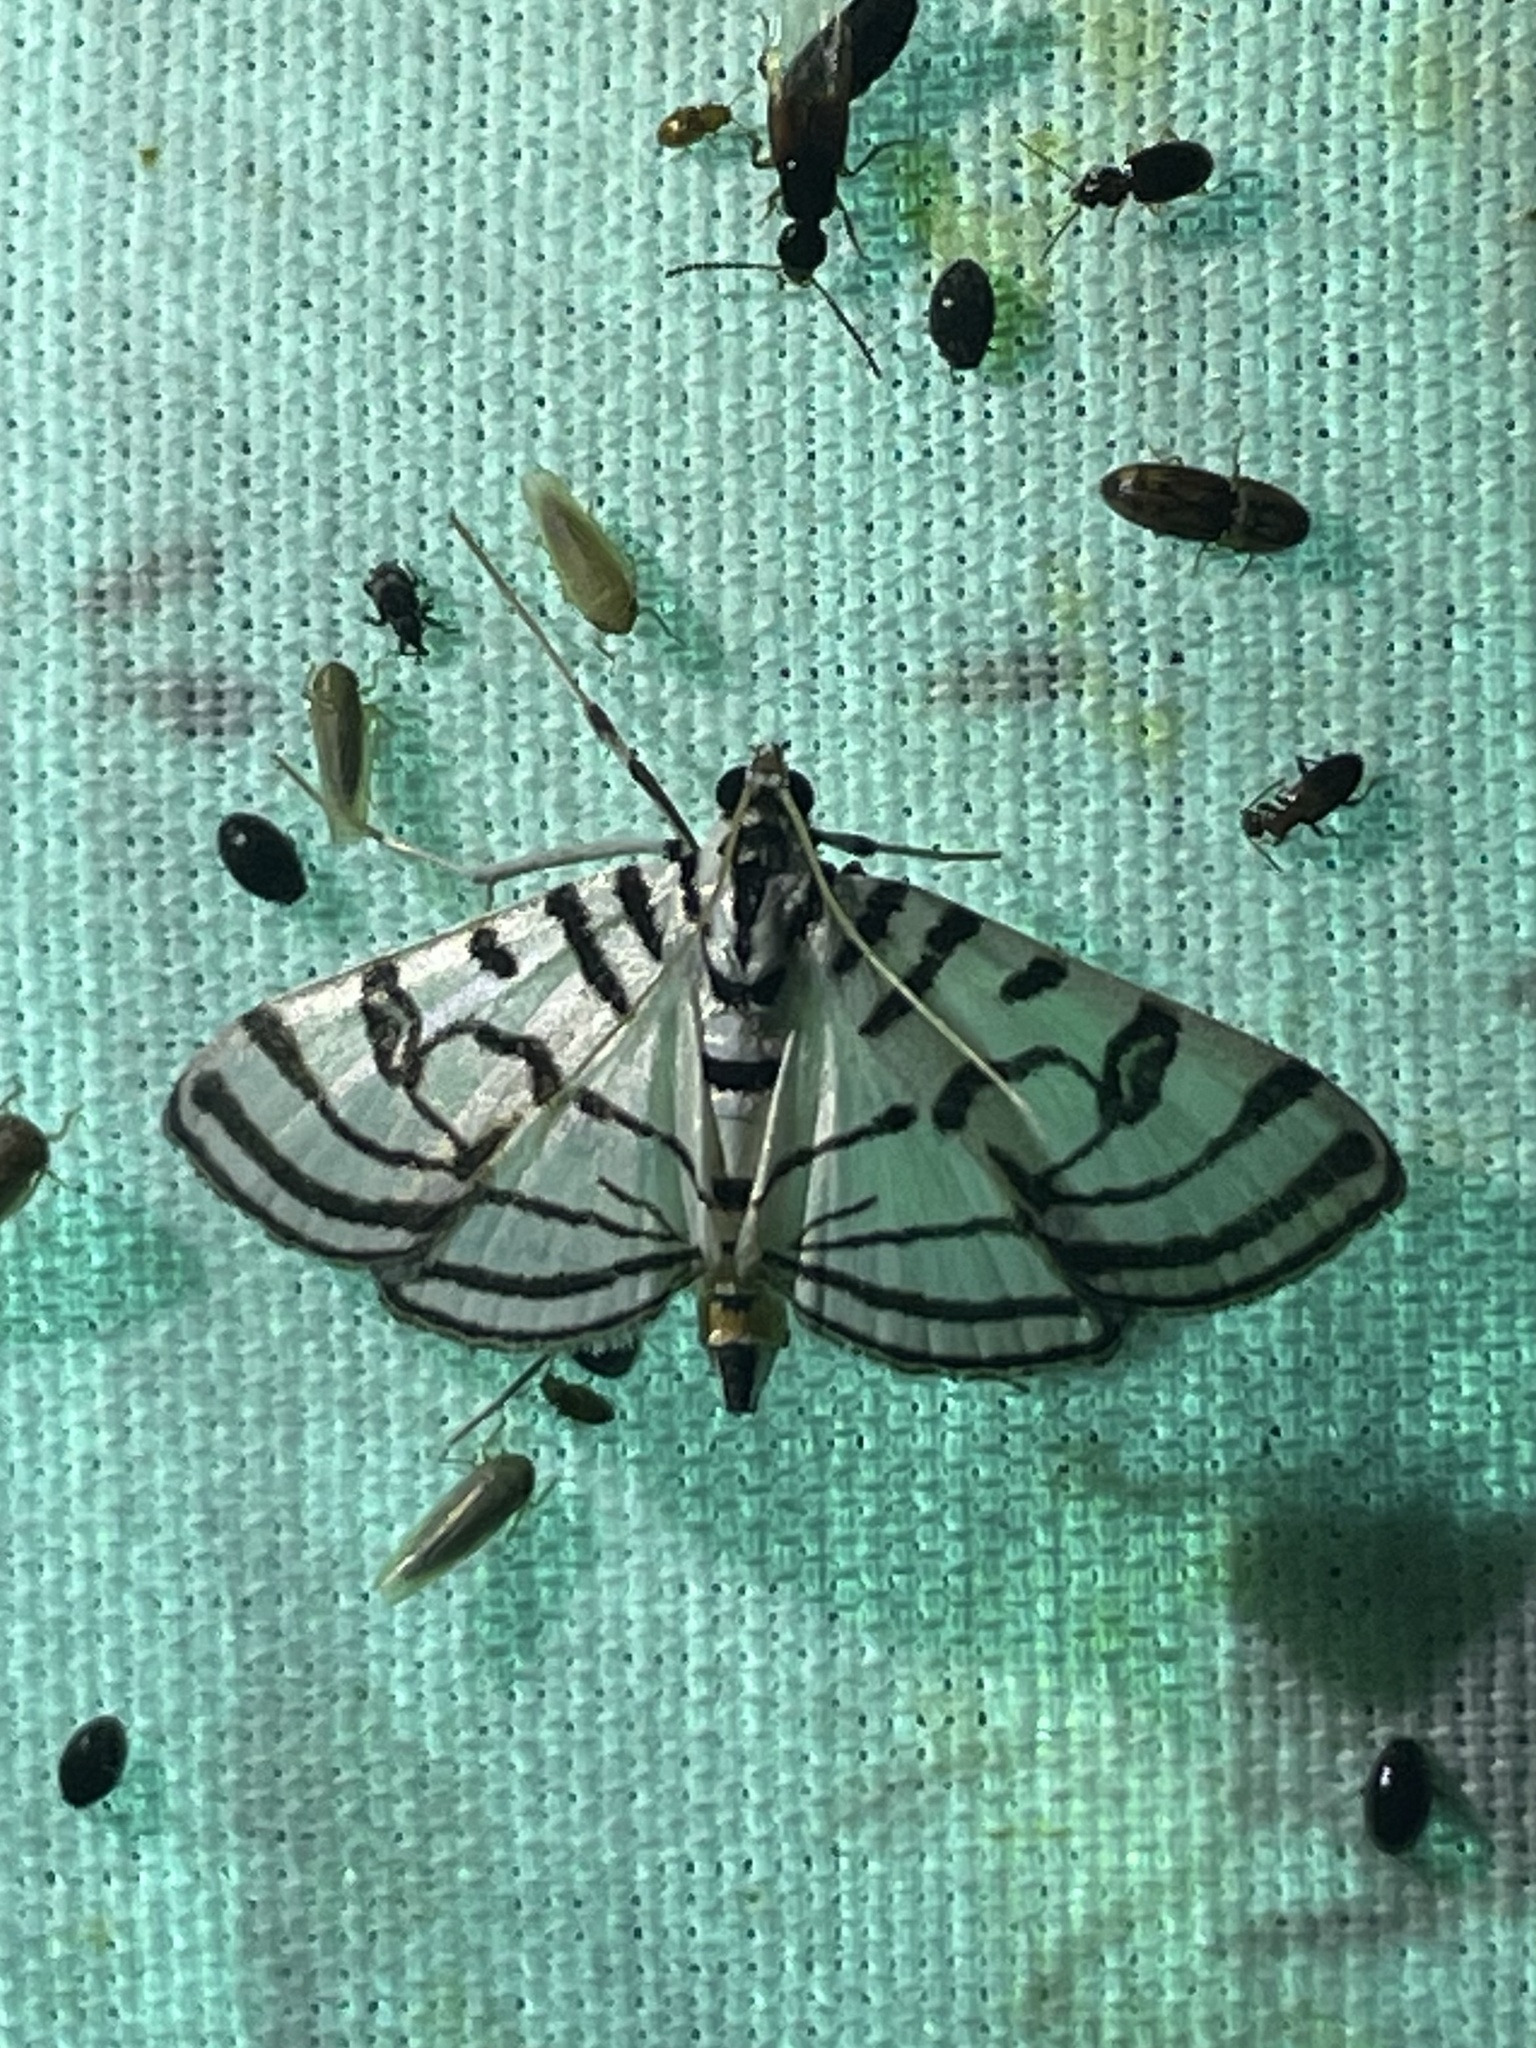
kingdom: Animalia
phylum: Arthropoda
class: Insecta
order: Lepidoptera
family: Crambidae
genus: Conchylodes
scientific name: Conchylodes ovulalis
